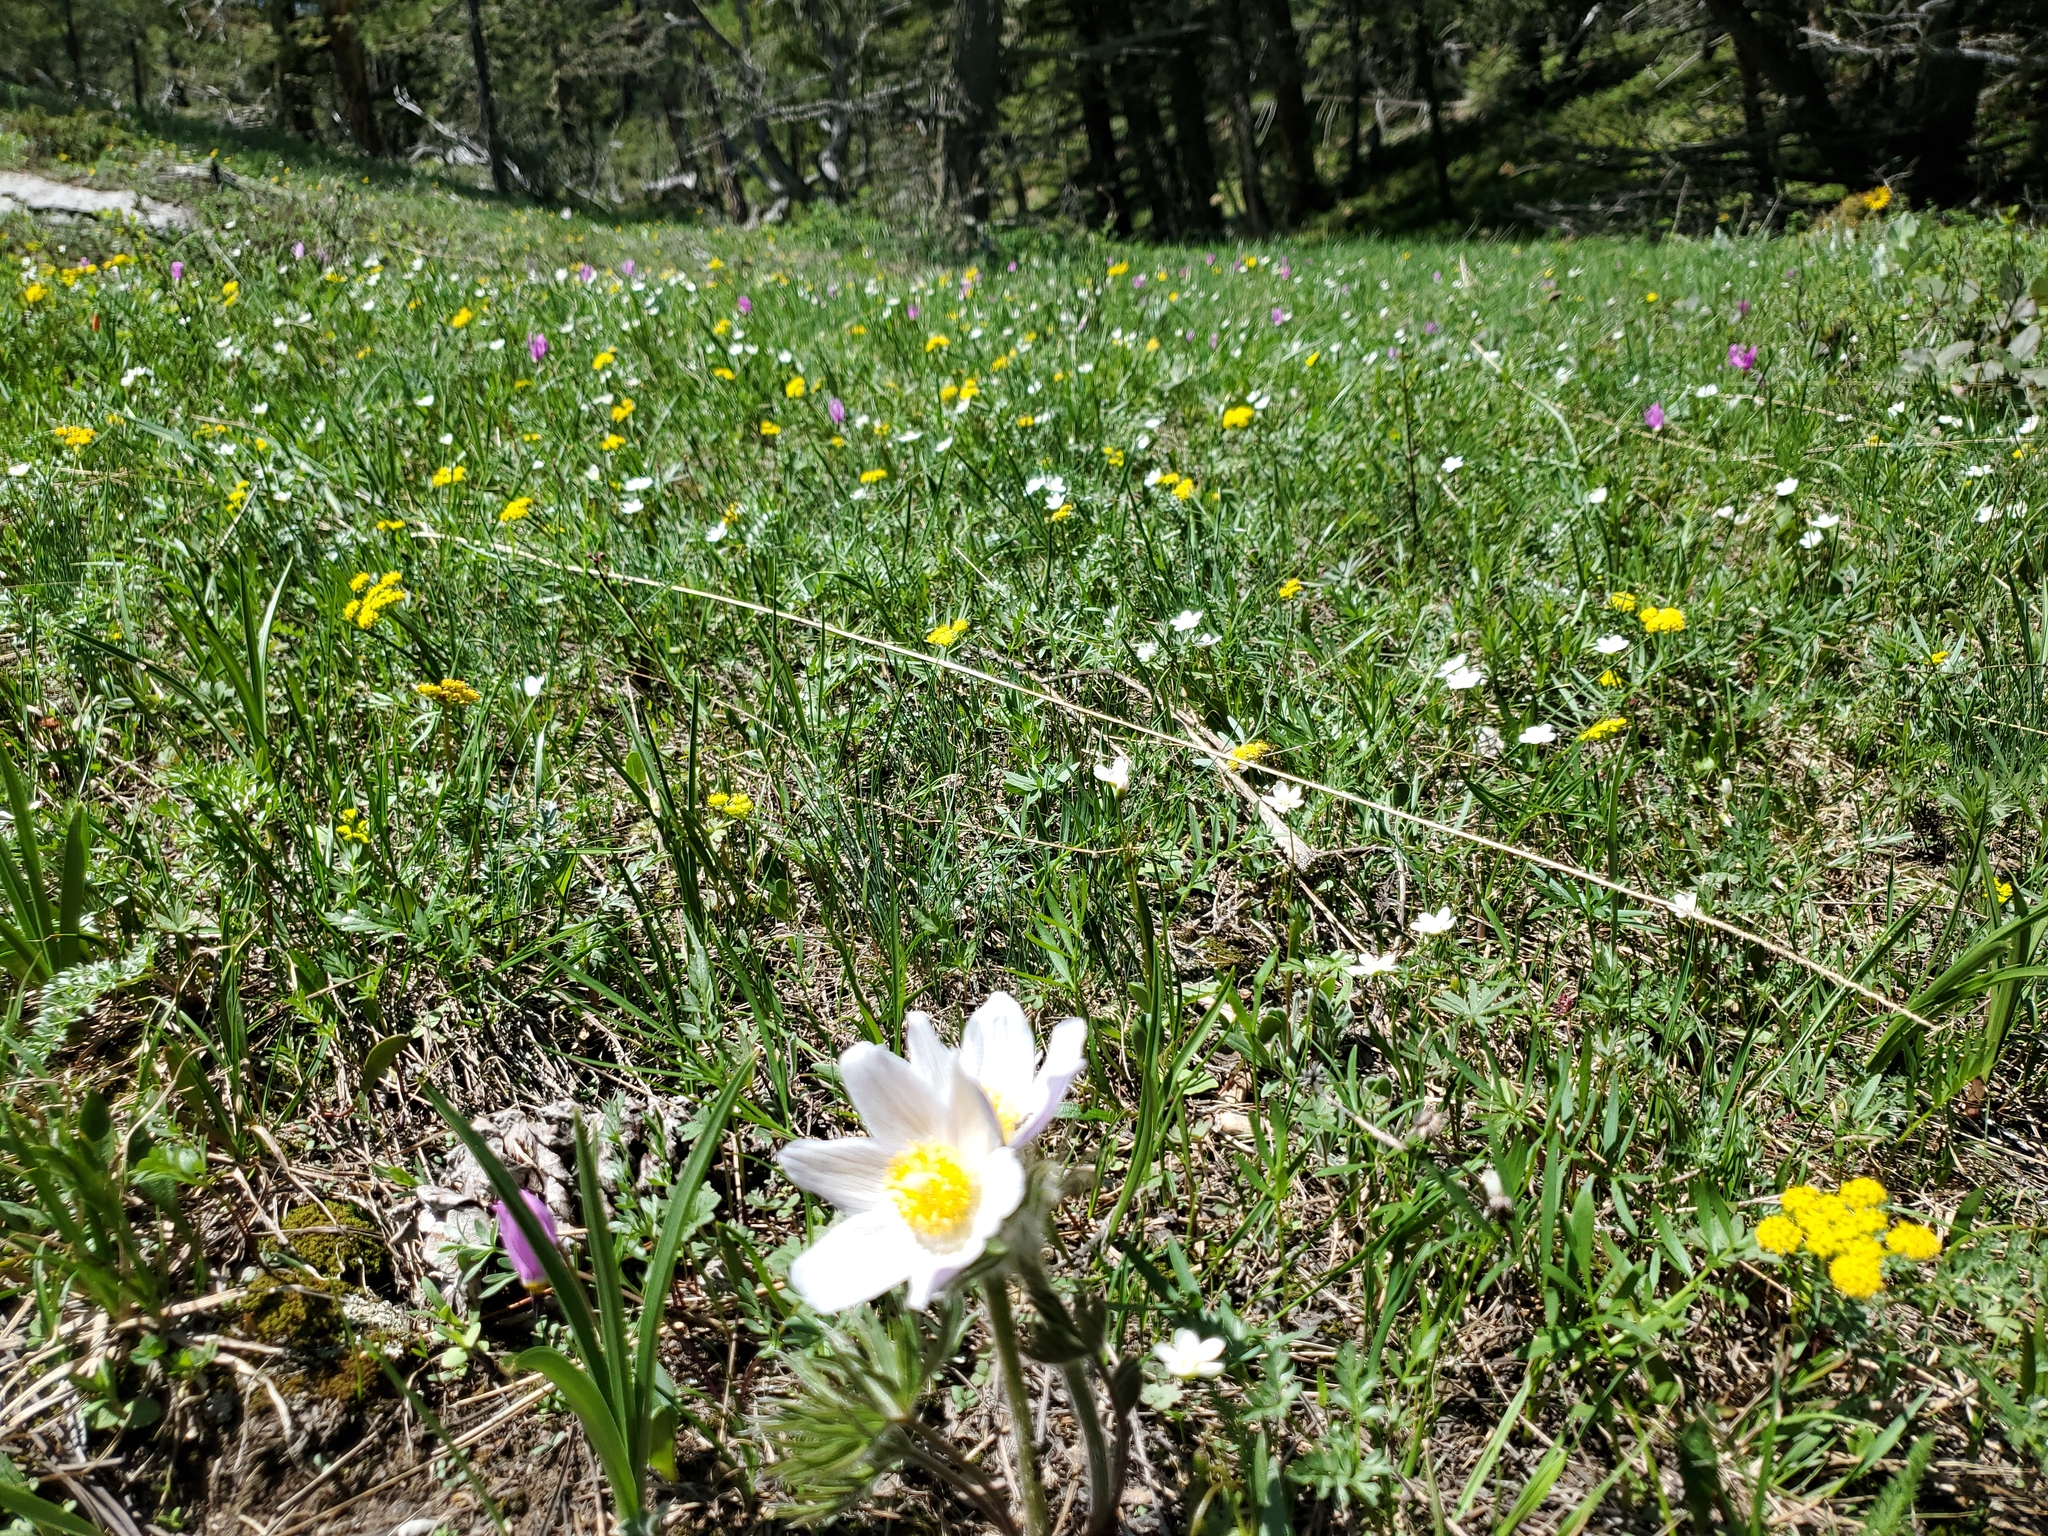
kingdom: Plantae
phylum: Tracheophyta
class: Magnoliopsida
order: Ranunculales
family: Ranunculaceae
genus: Pulsatilla
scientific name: Pulsatilla nuttalliana
